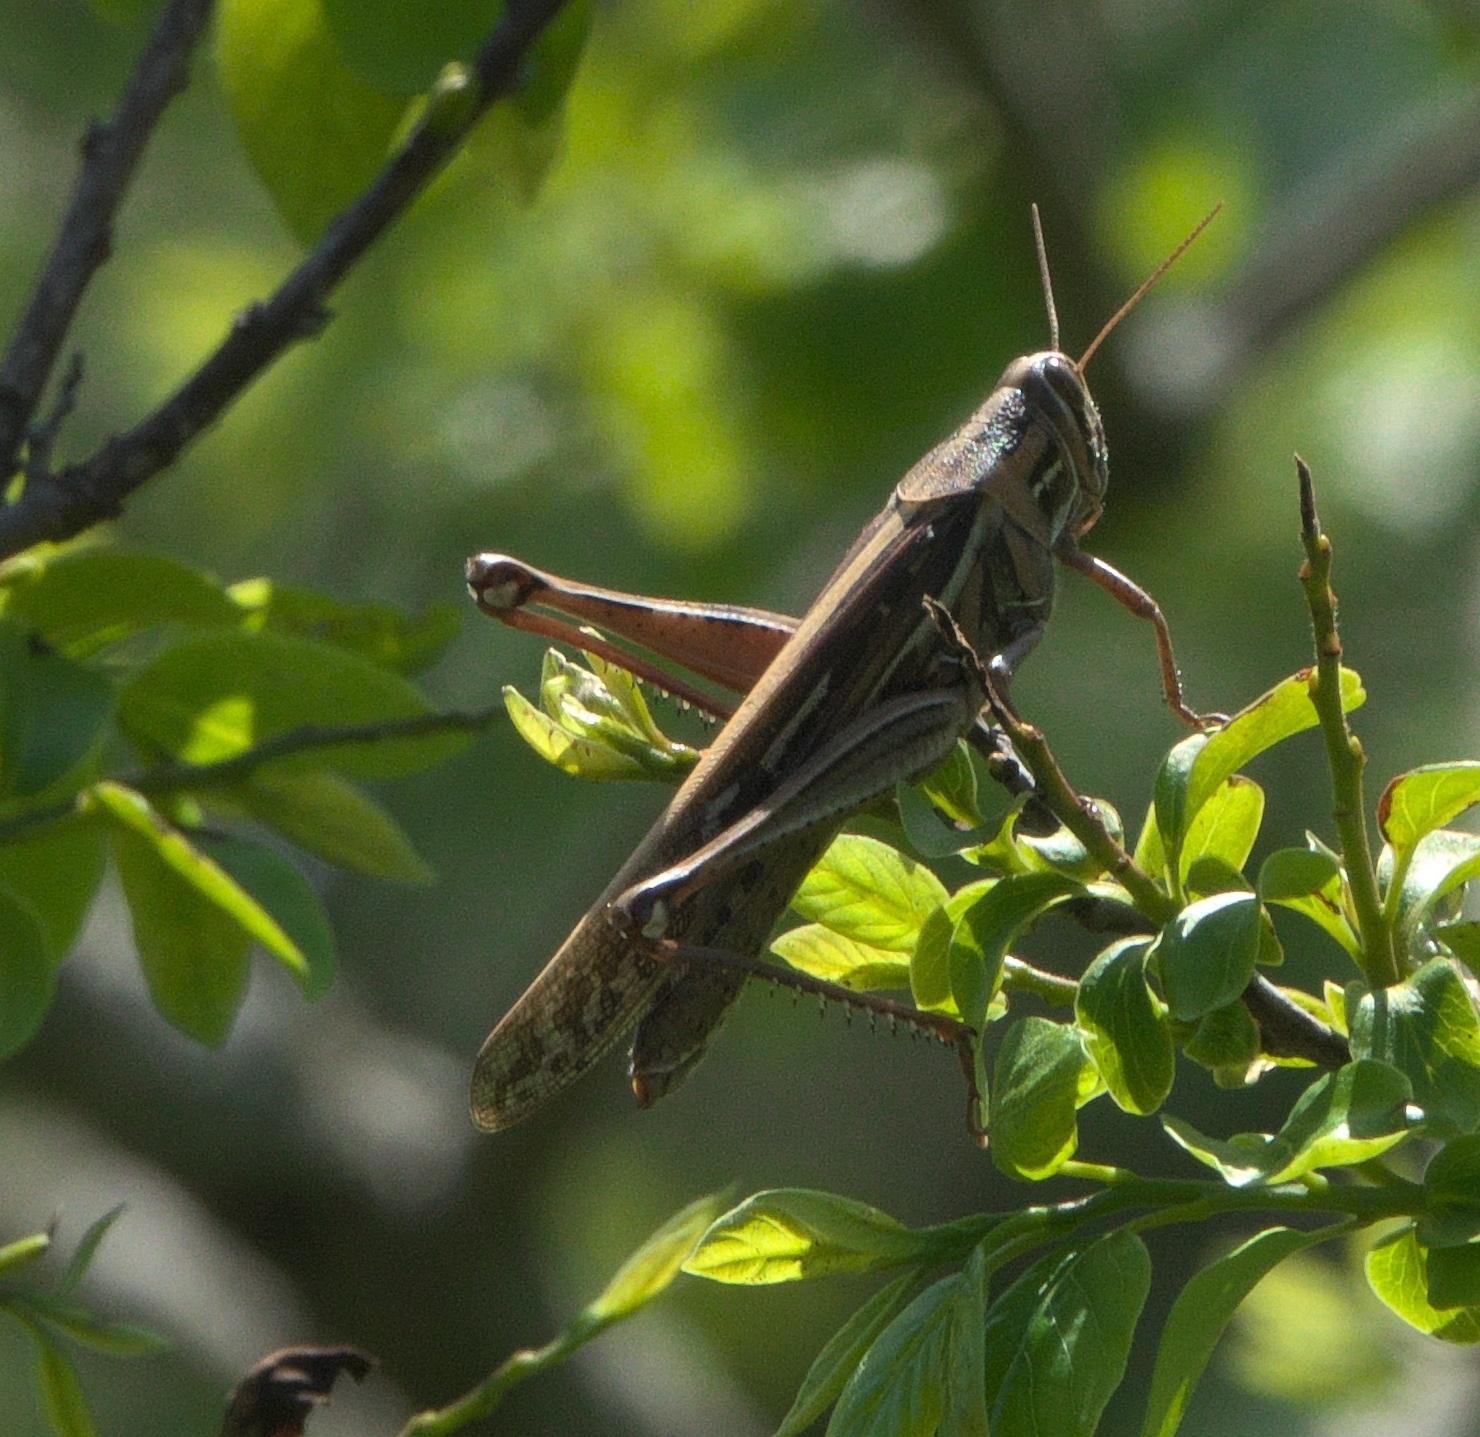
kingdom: Animalia
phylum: Arthropoda
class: Insecta
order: Orthoptera
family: Acrididae
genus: Schistocerca
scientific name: Schistocerca americana
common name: American bird locust
